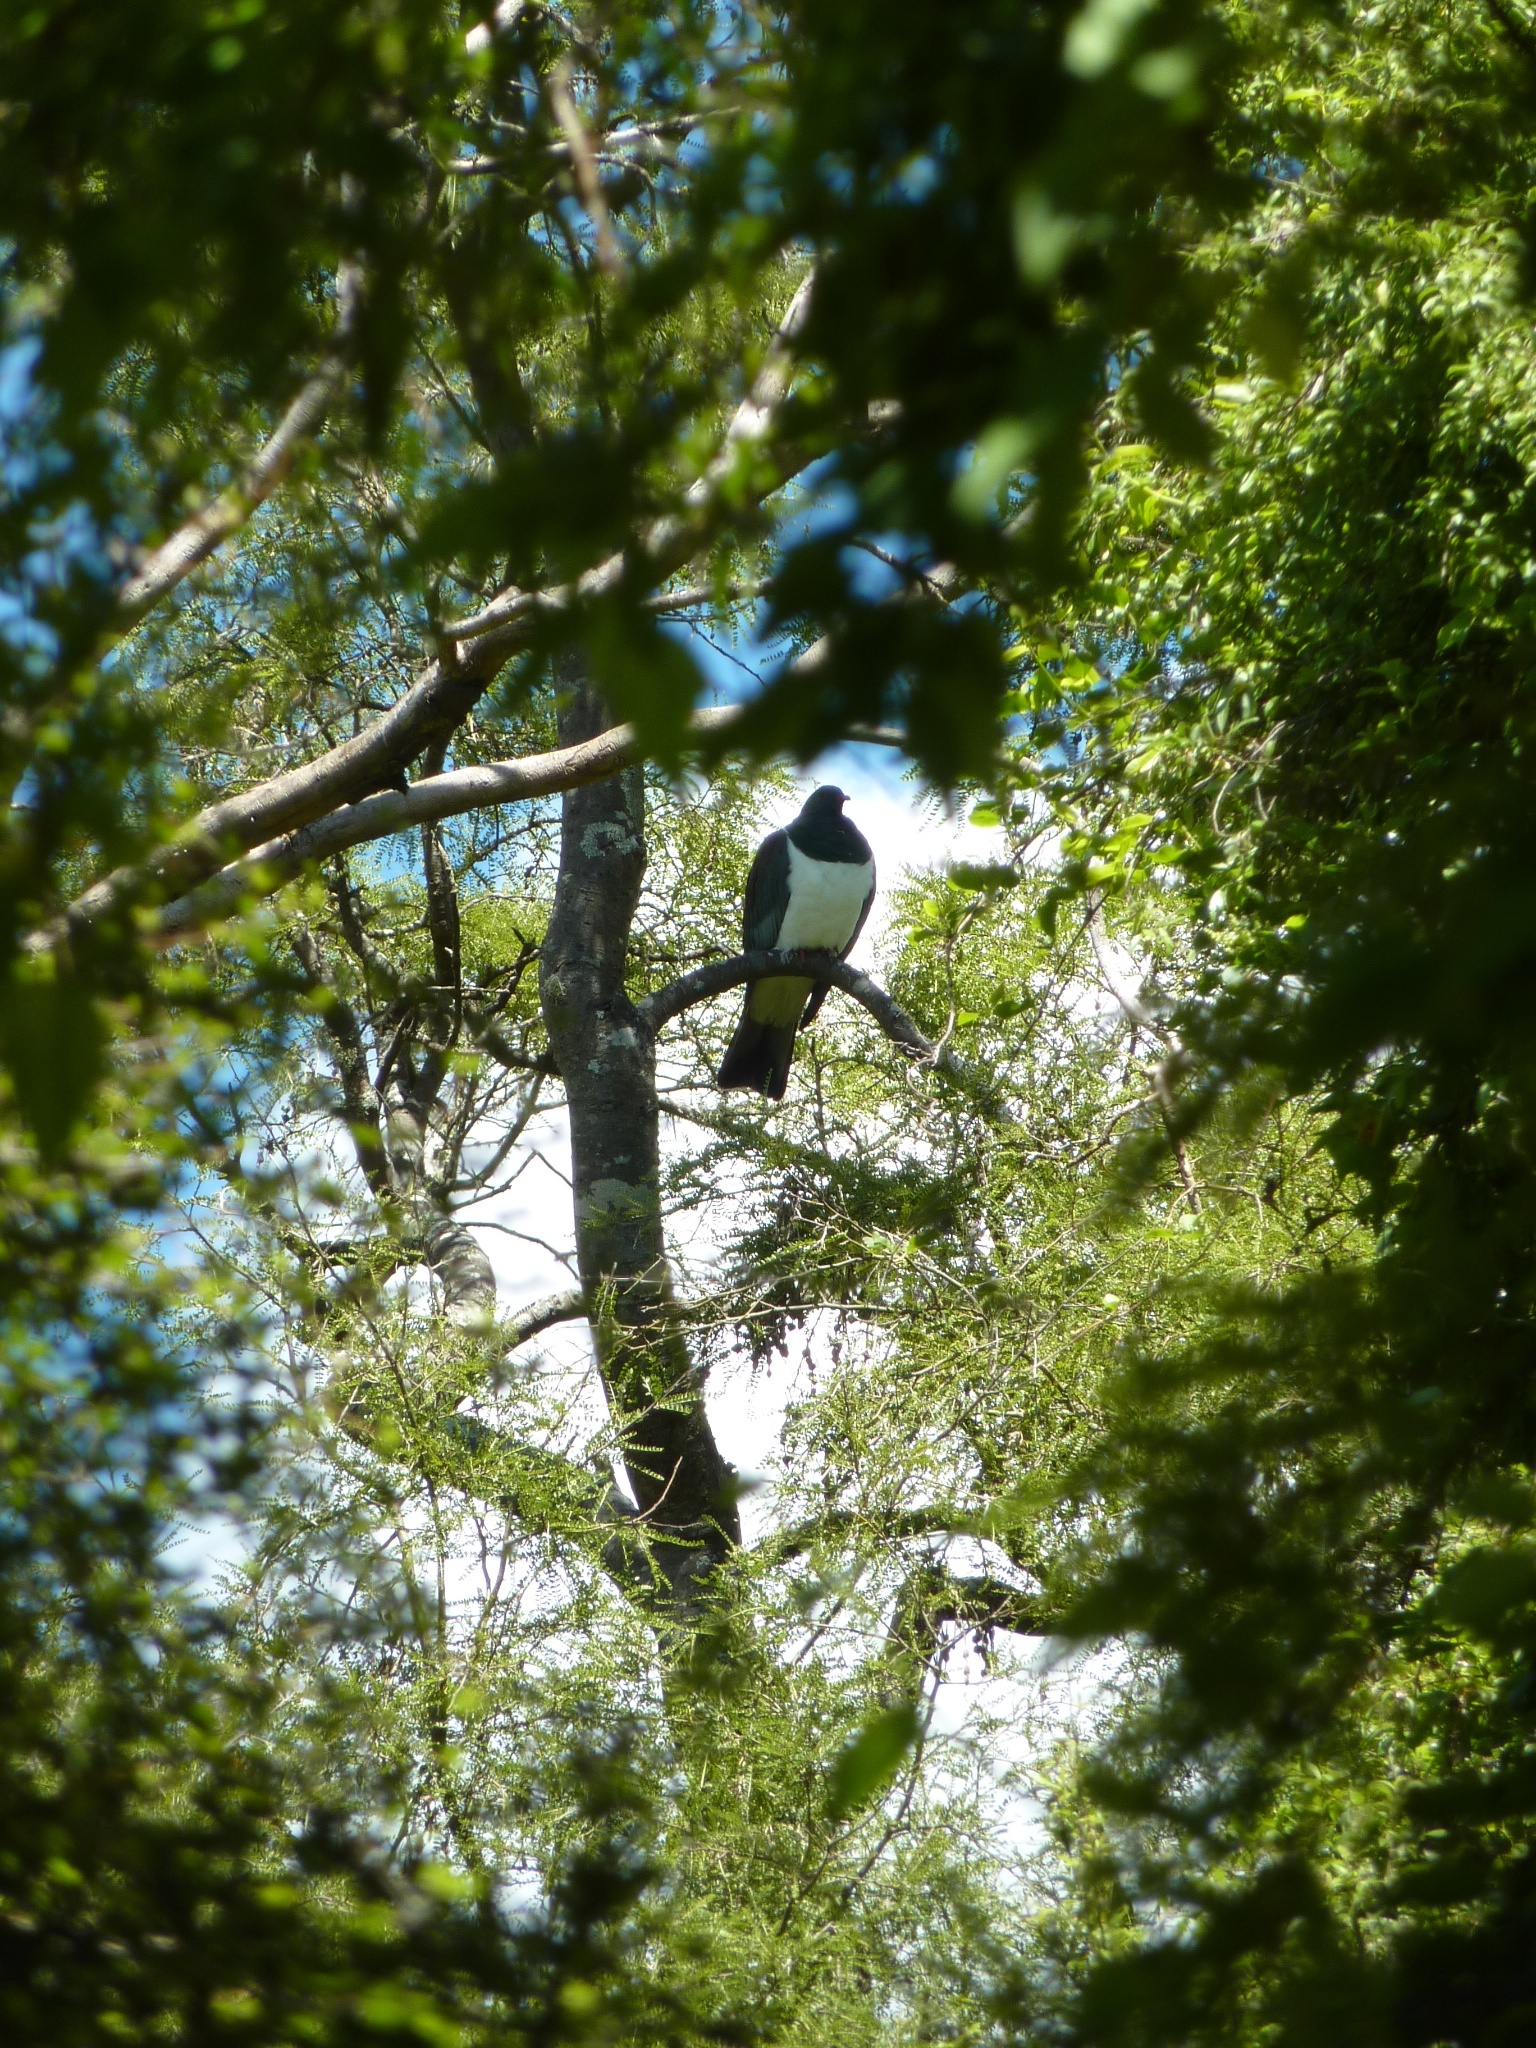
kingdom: Animalia
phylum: Chordata
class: Aves
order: Columbiformes
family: Columbidae
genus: Hemiphaga
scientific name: Hemiphaga novaeseelandiae
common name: New zealand pigeon
